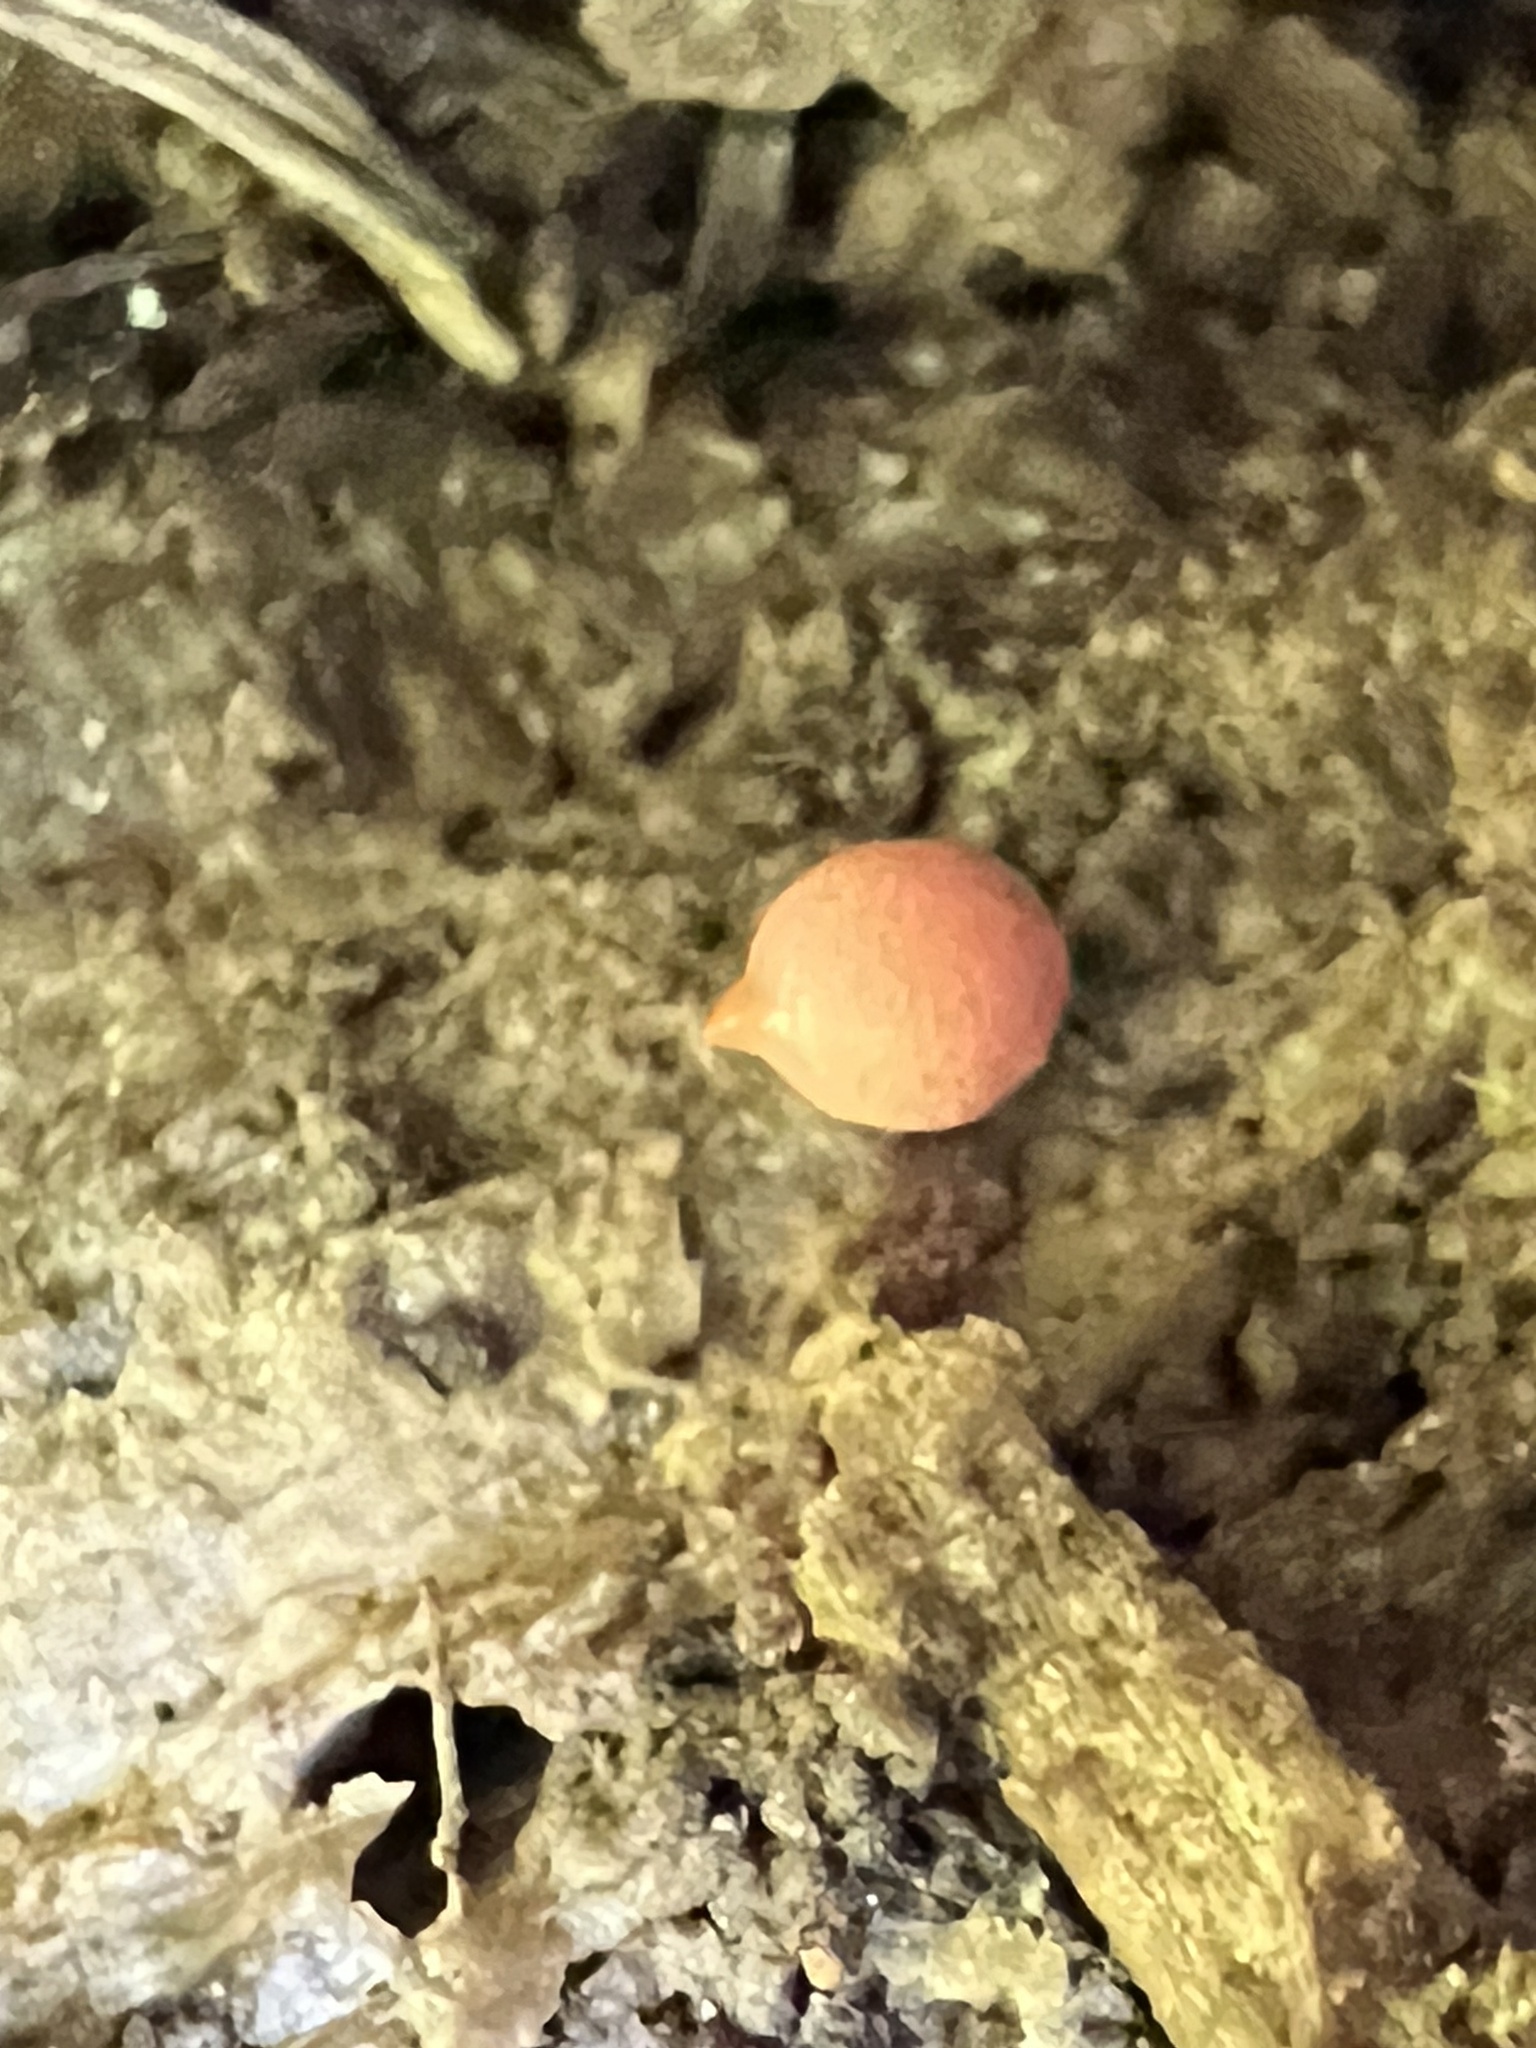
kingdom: Protozoa
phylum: Mycetozoa
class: Myxomycetes
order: Cribrariales
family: Tubiferaceae
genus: Lycogala
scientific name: Lycogala epidendrum
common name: Wolf's milk
